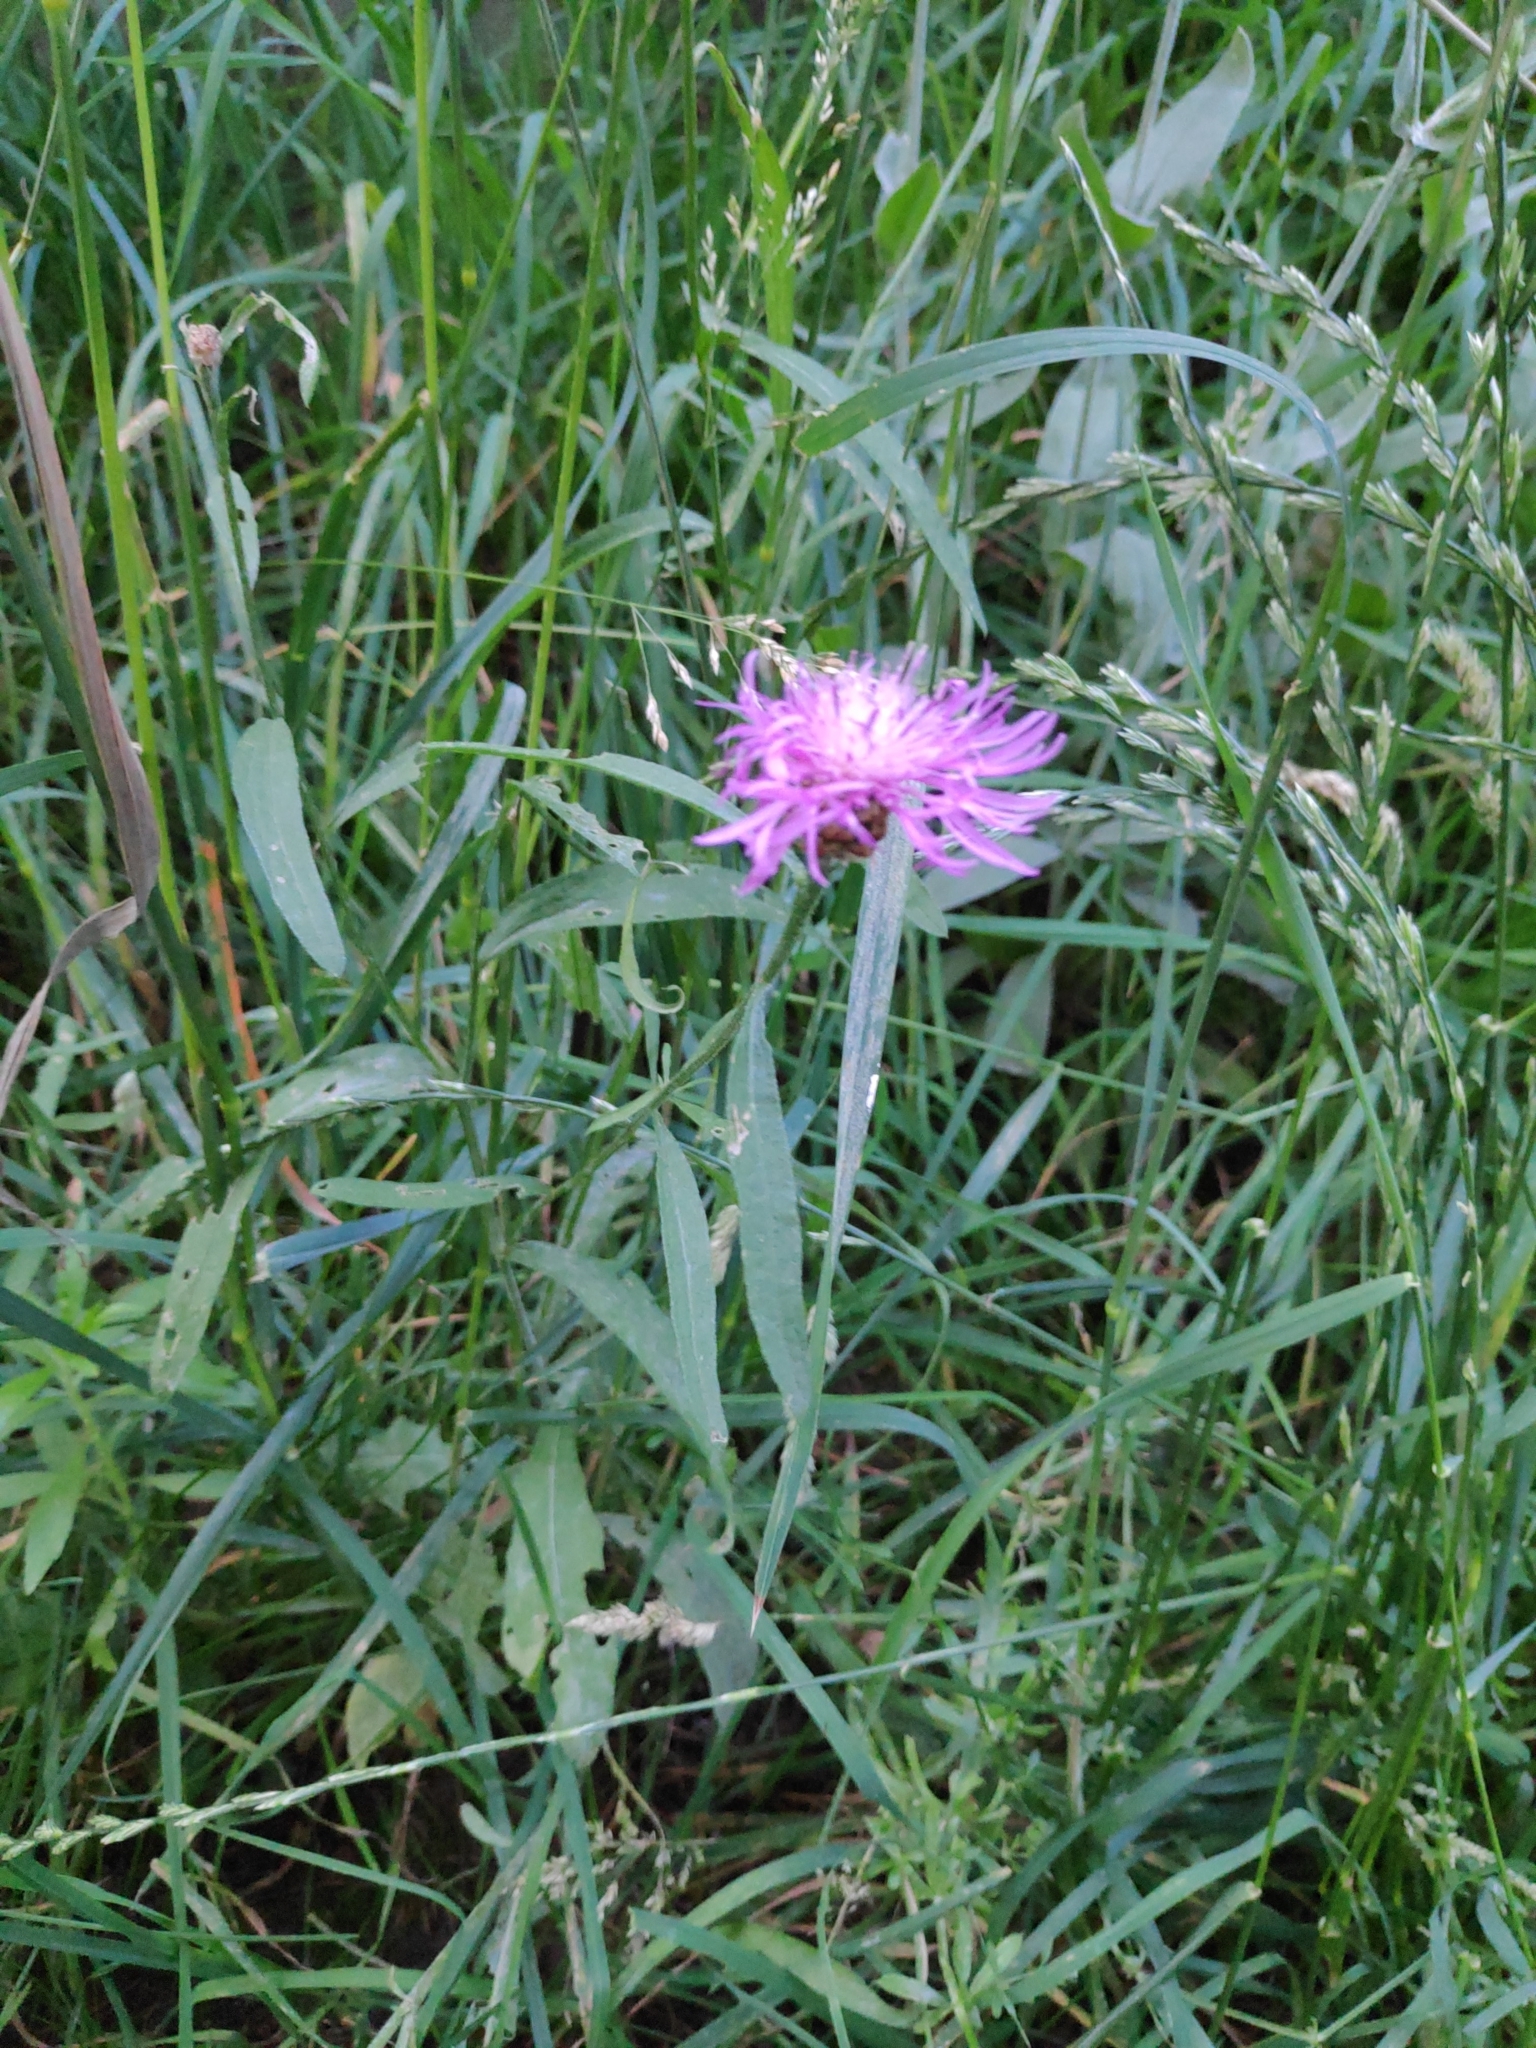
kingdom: Plantae
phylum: Tracheophyta
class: Magnoliopsida
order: Asterales
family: Asteraceae
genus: Centaurea
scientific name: Centaurea jacea
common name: Brown knapweed
